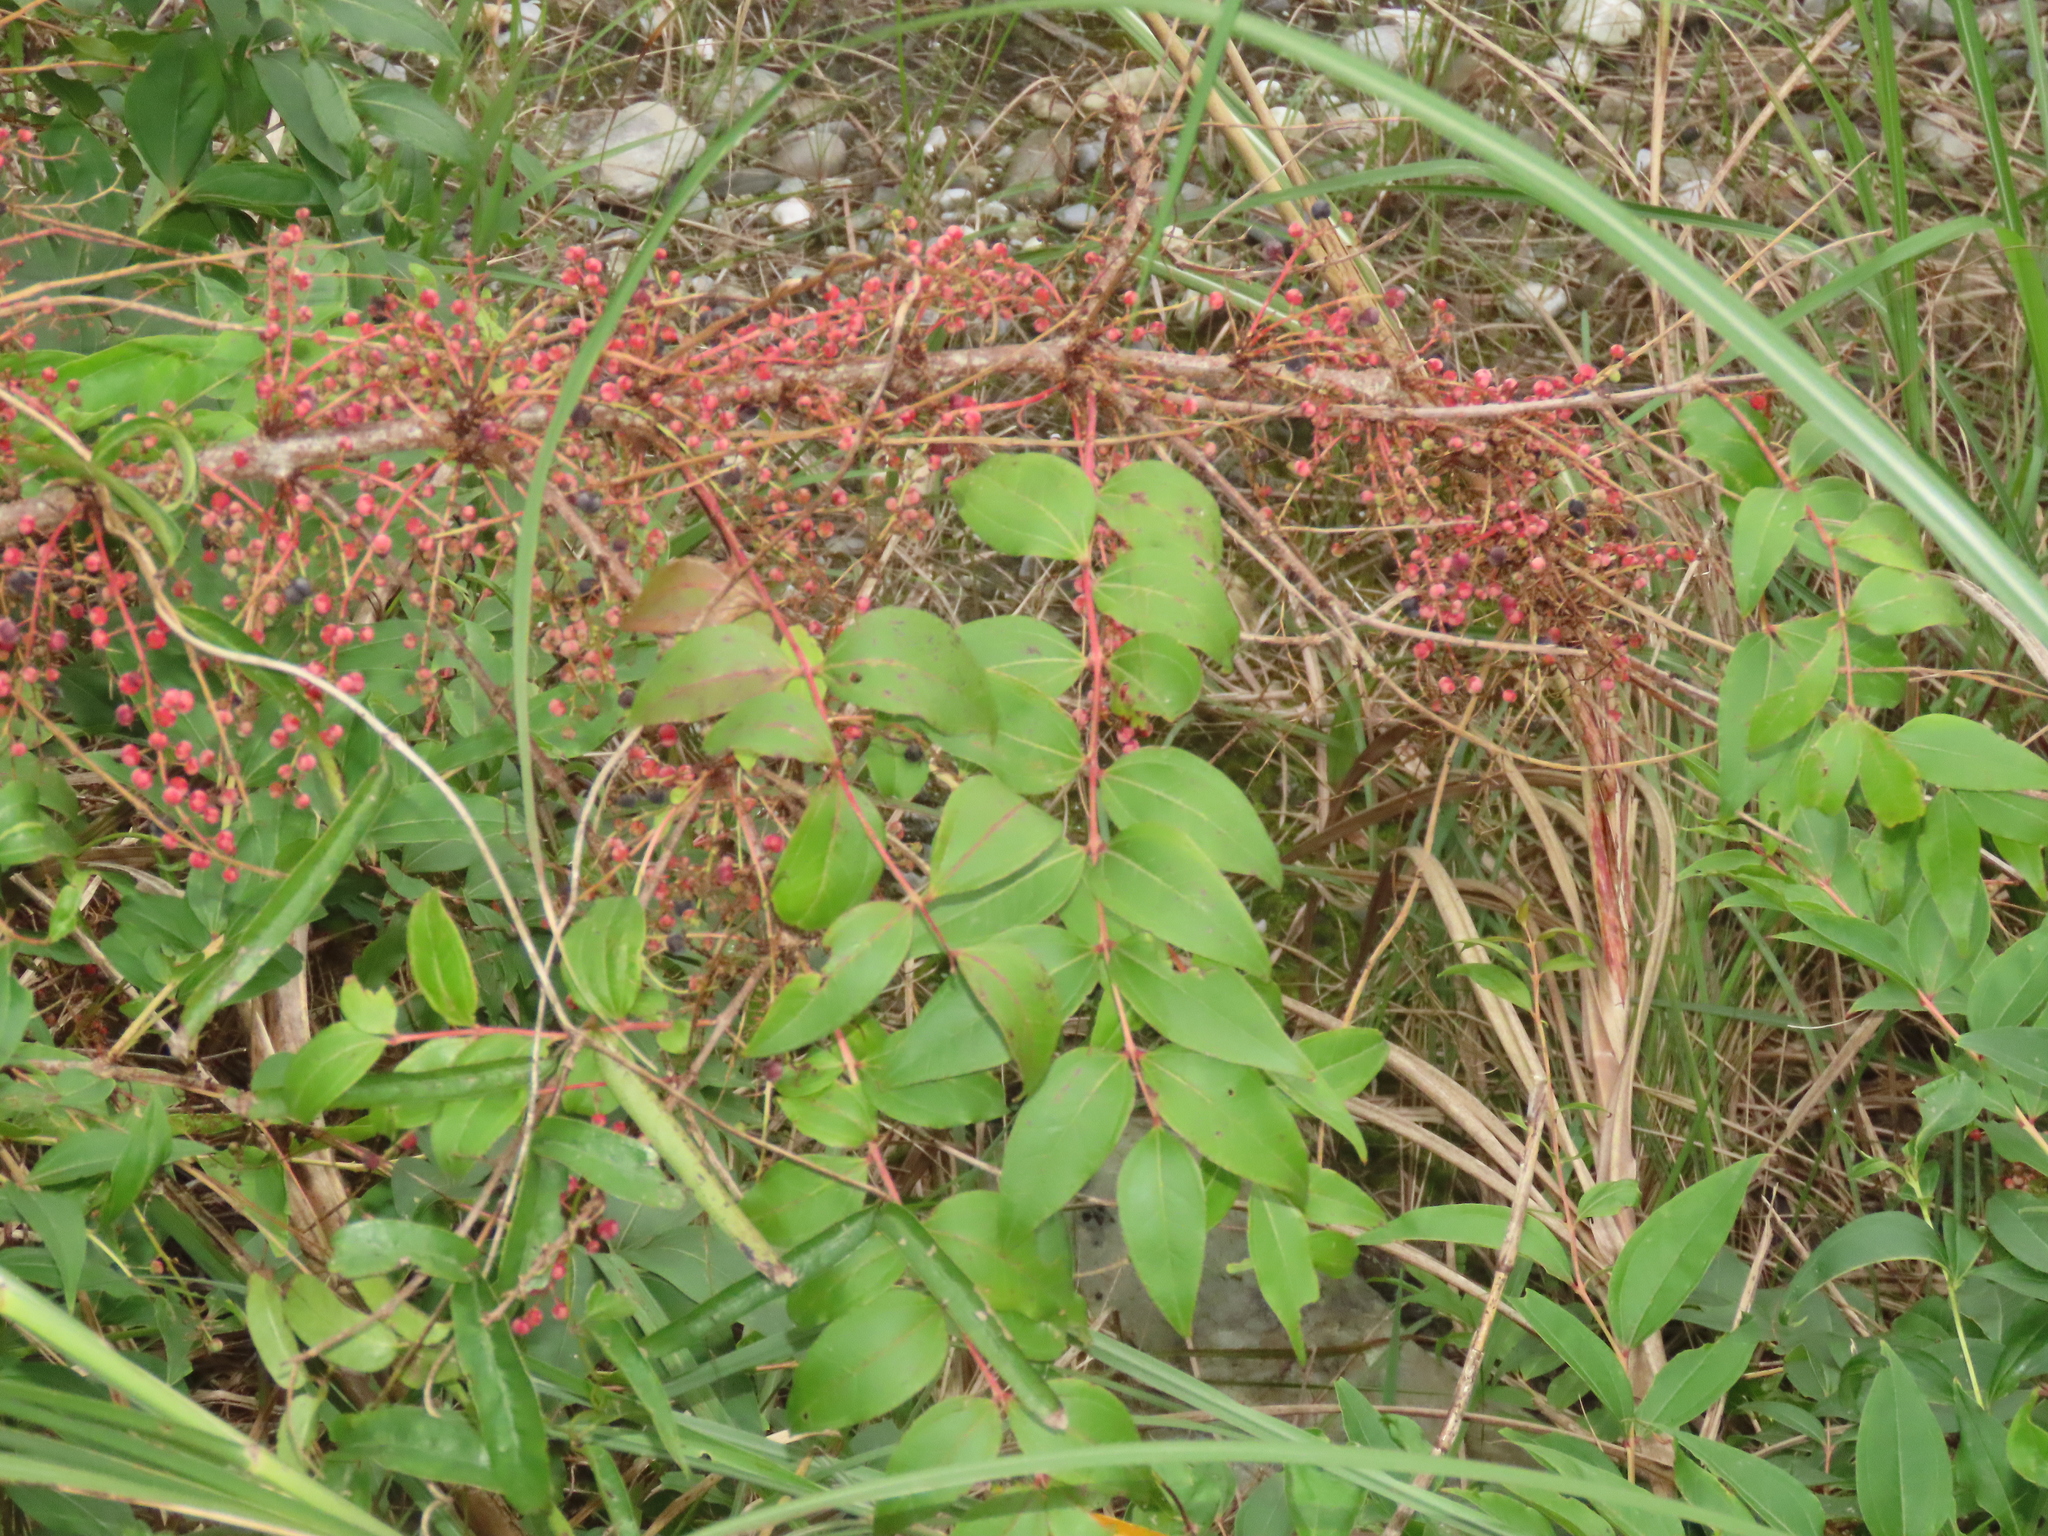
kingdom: Plantae
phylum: Tracheophyta
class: Magnoliopsida
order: Cucurbitales
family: Coriariaceae
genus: Coriaria
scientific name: Coriaria japonica
